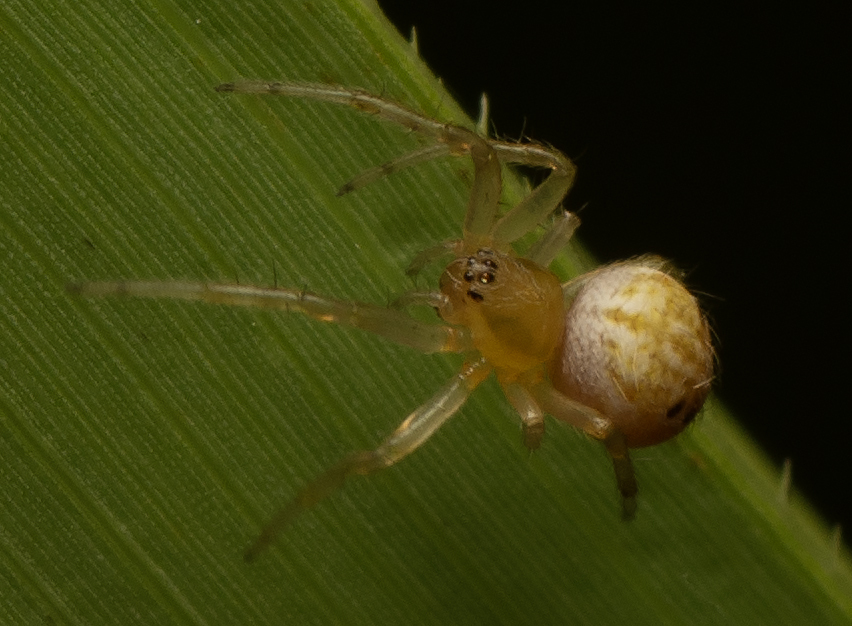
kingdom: Animalia
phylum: Arthropoda
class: Arachnida
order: Araneae
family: Araneidae
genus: Neoscona
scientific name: Neoscona theisi
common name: Spider
